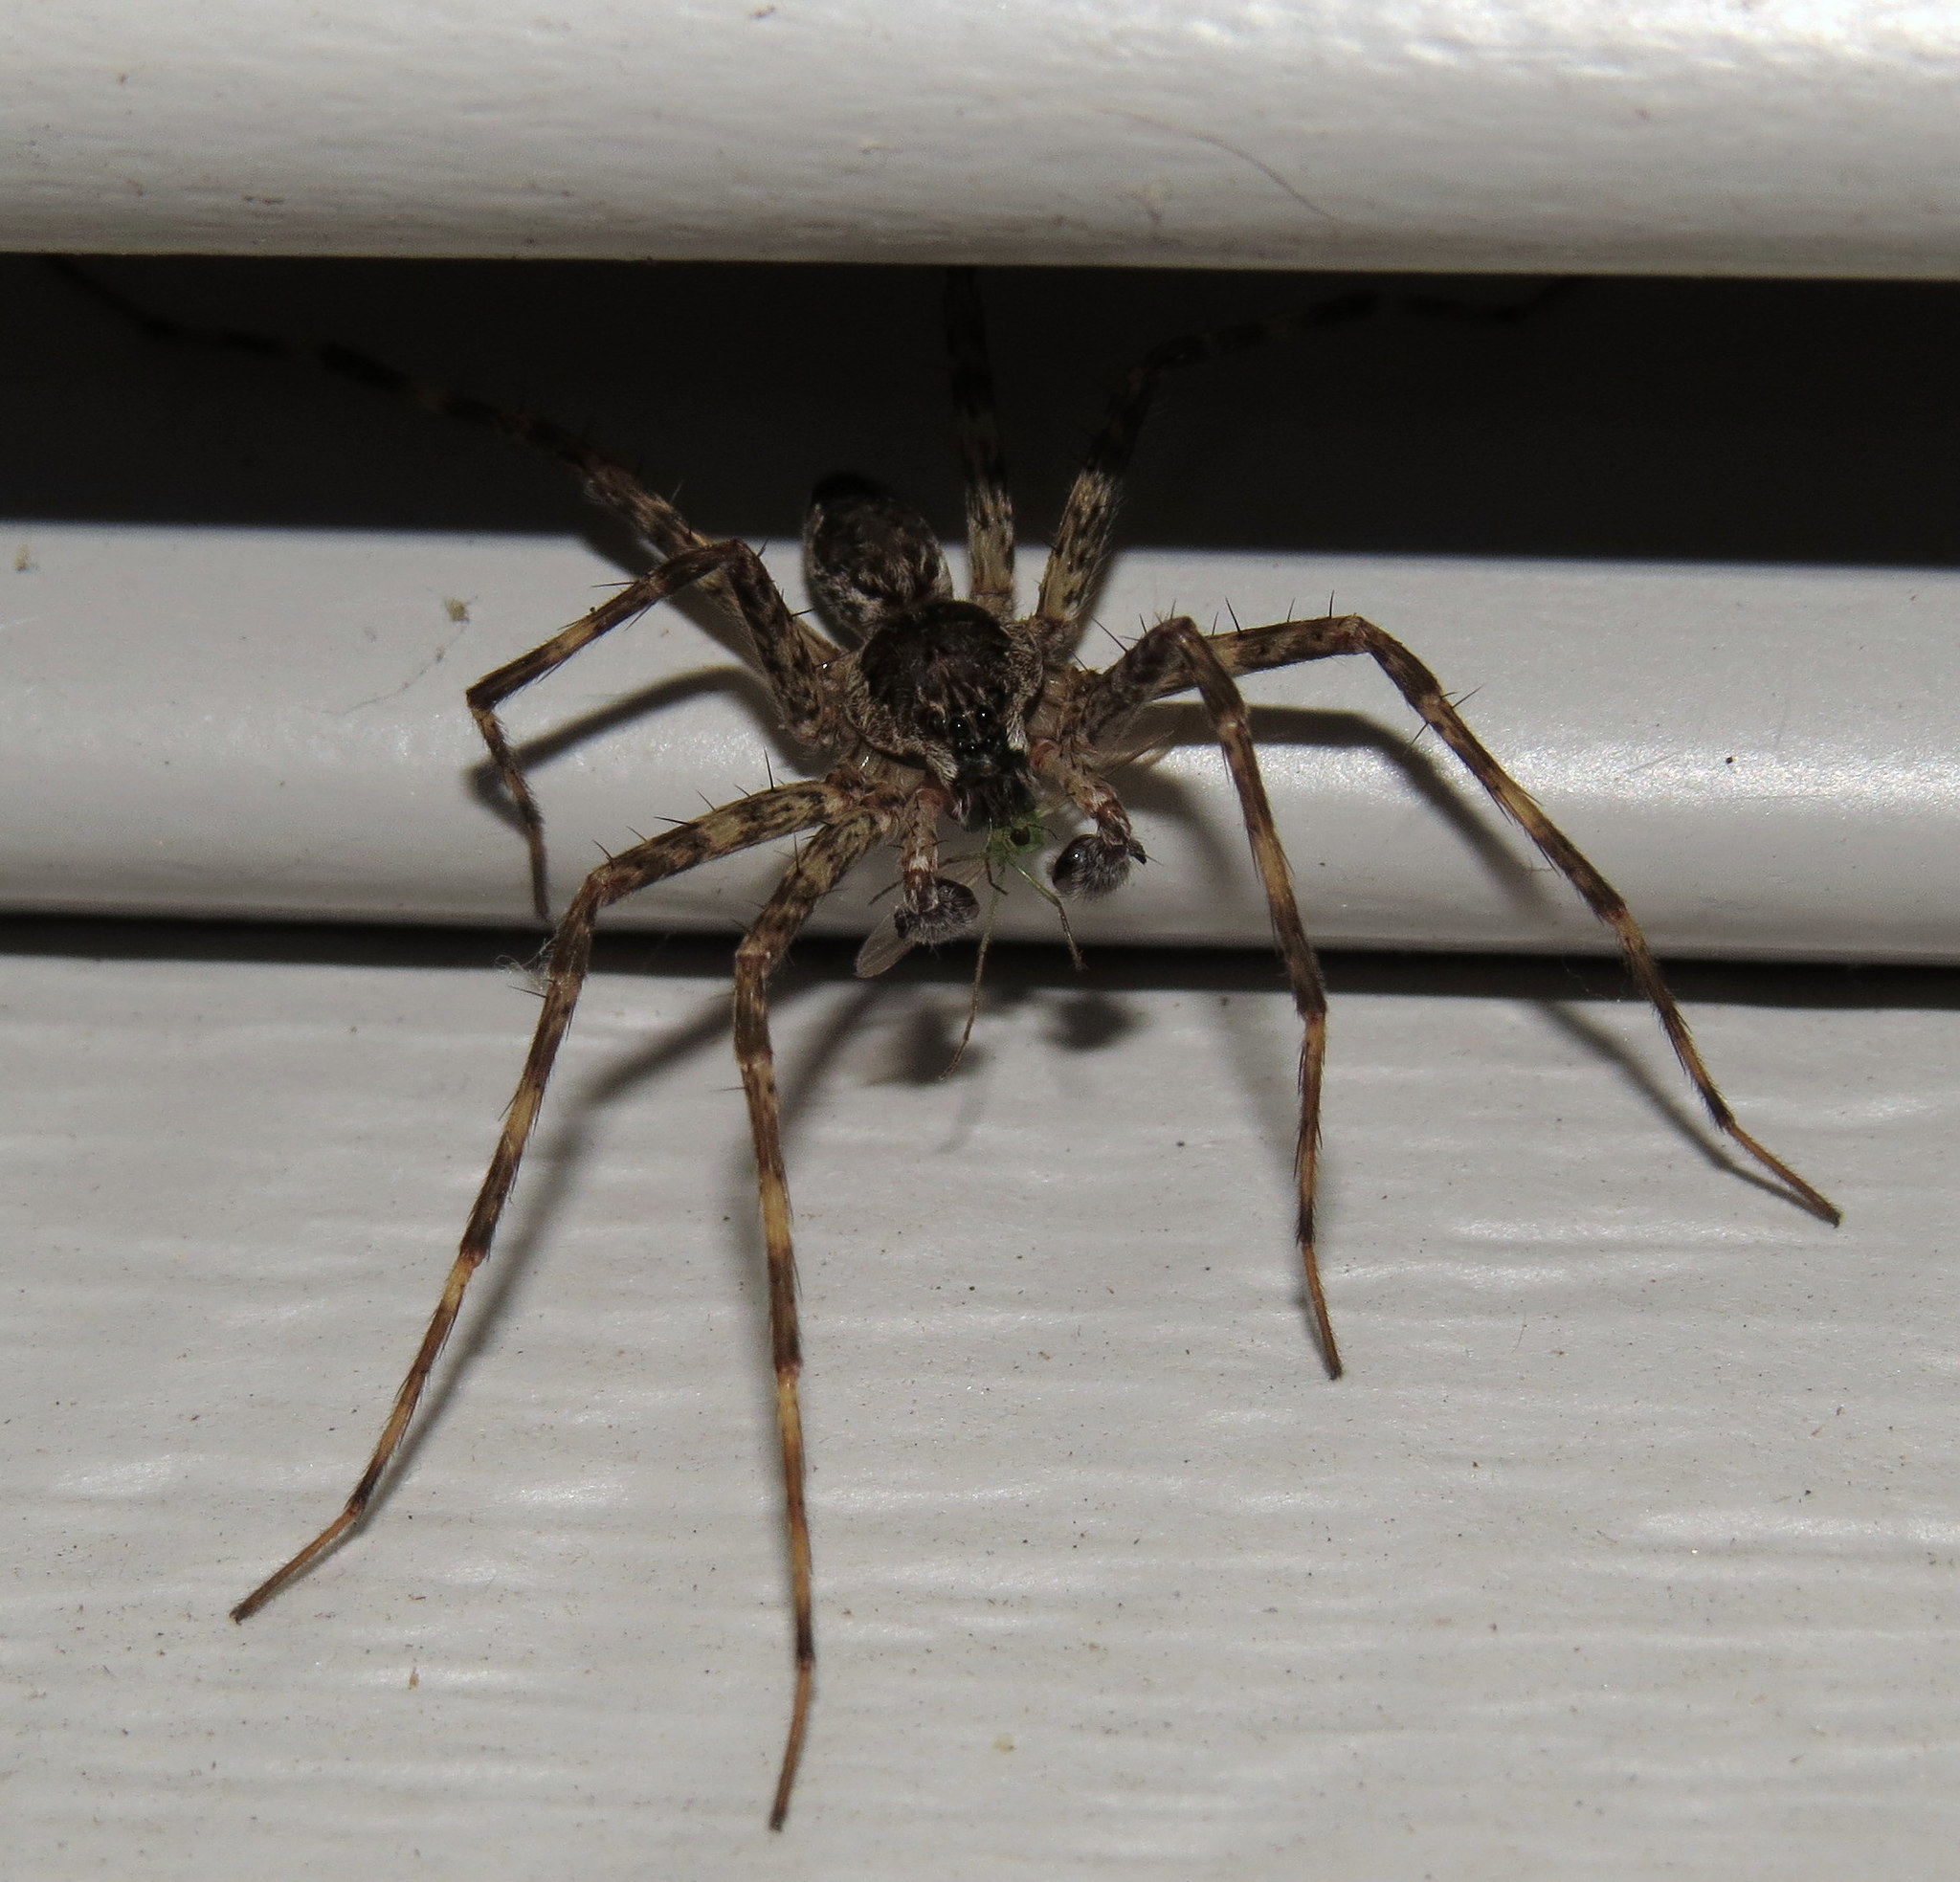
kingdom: Animalia
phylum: Arthropoda
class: Arachnida
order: Araneae
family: Pisauridae
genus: Dolomedes
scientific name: Dolomedes tenebrosus
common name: Dark fishing spider
